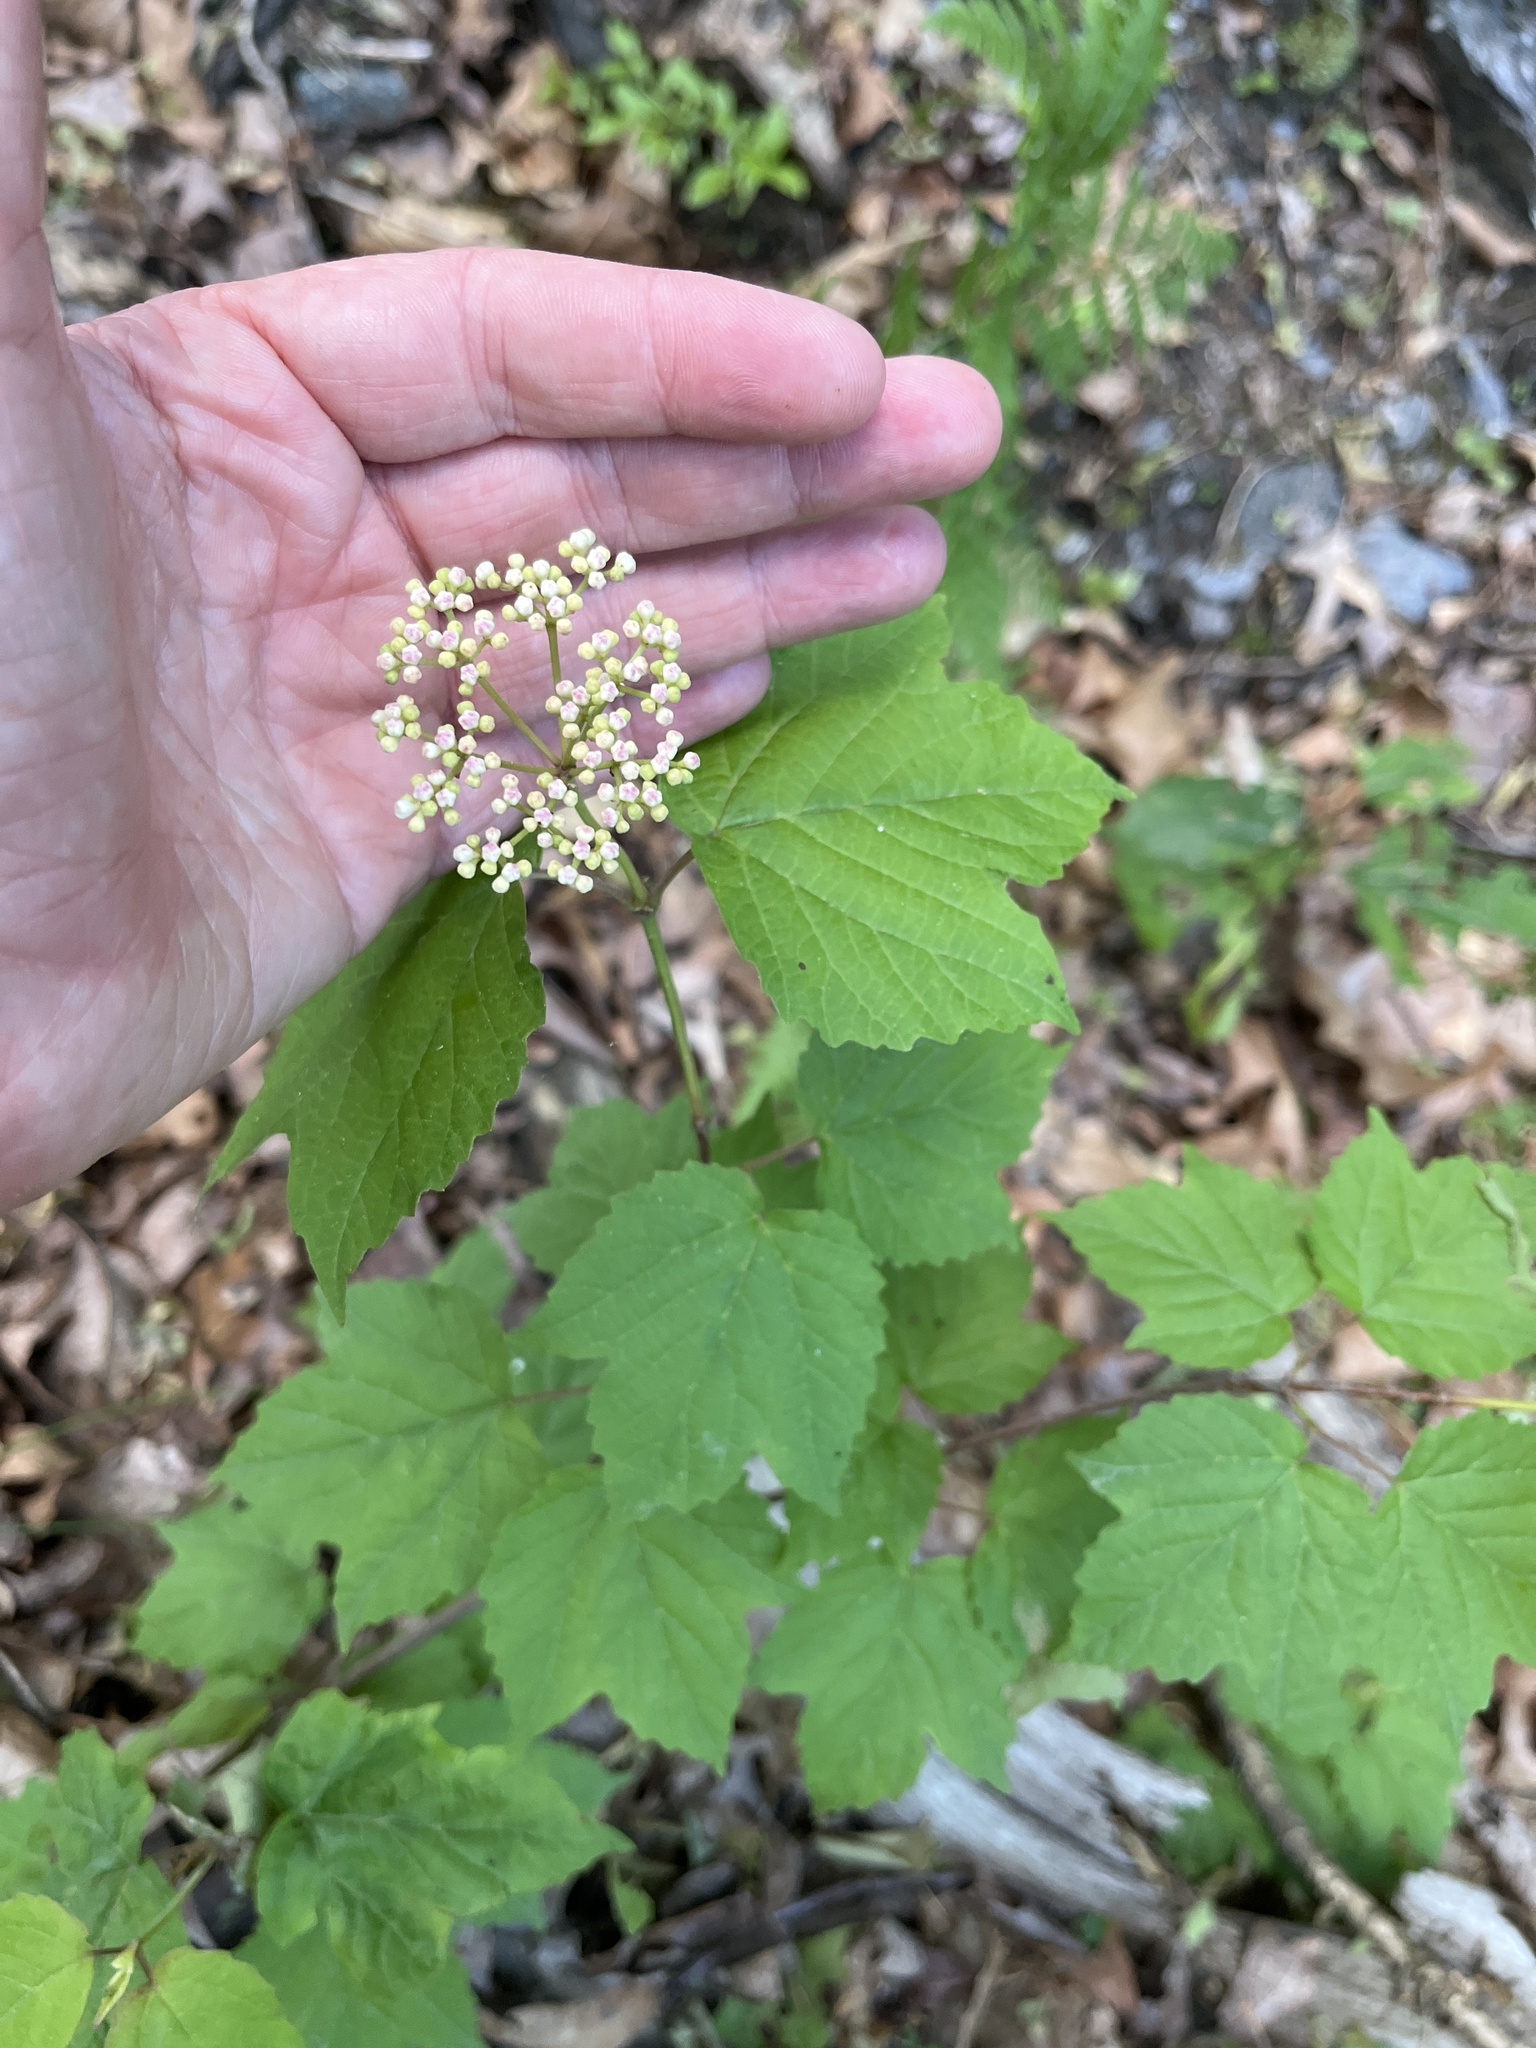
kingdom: Plantae
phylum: Tracheophyta
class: Magnoliopsida
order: Dipsacales
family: Viburnaceae
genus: Viburnum
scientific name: Viburnum acerifolium
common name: Dockmackie
